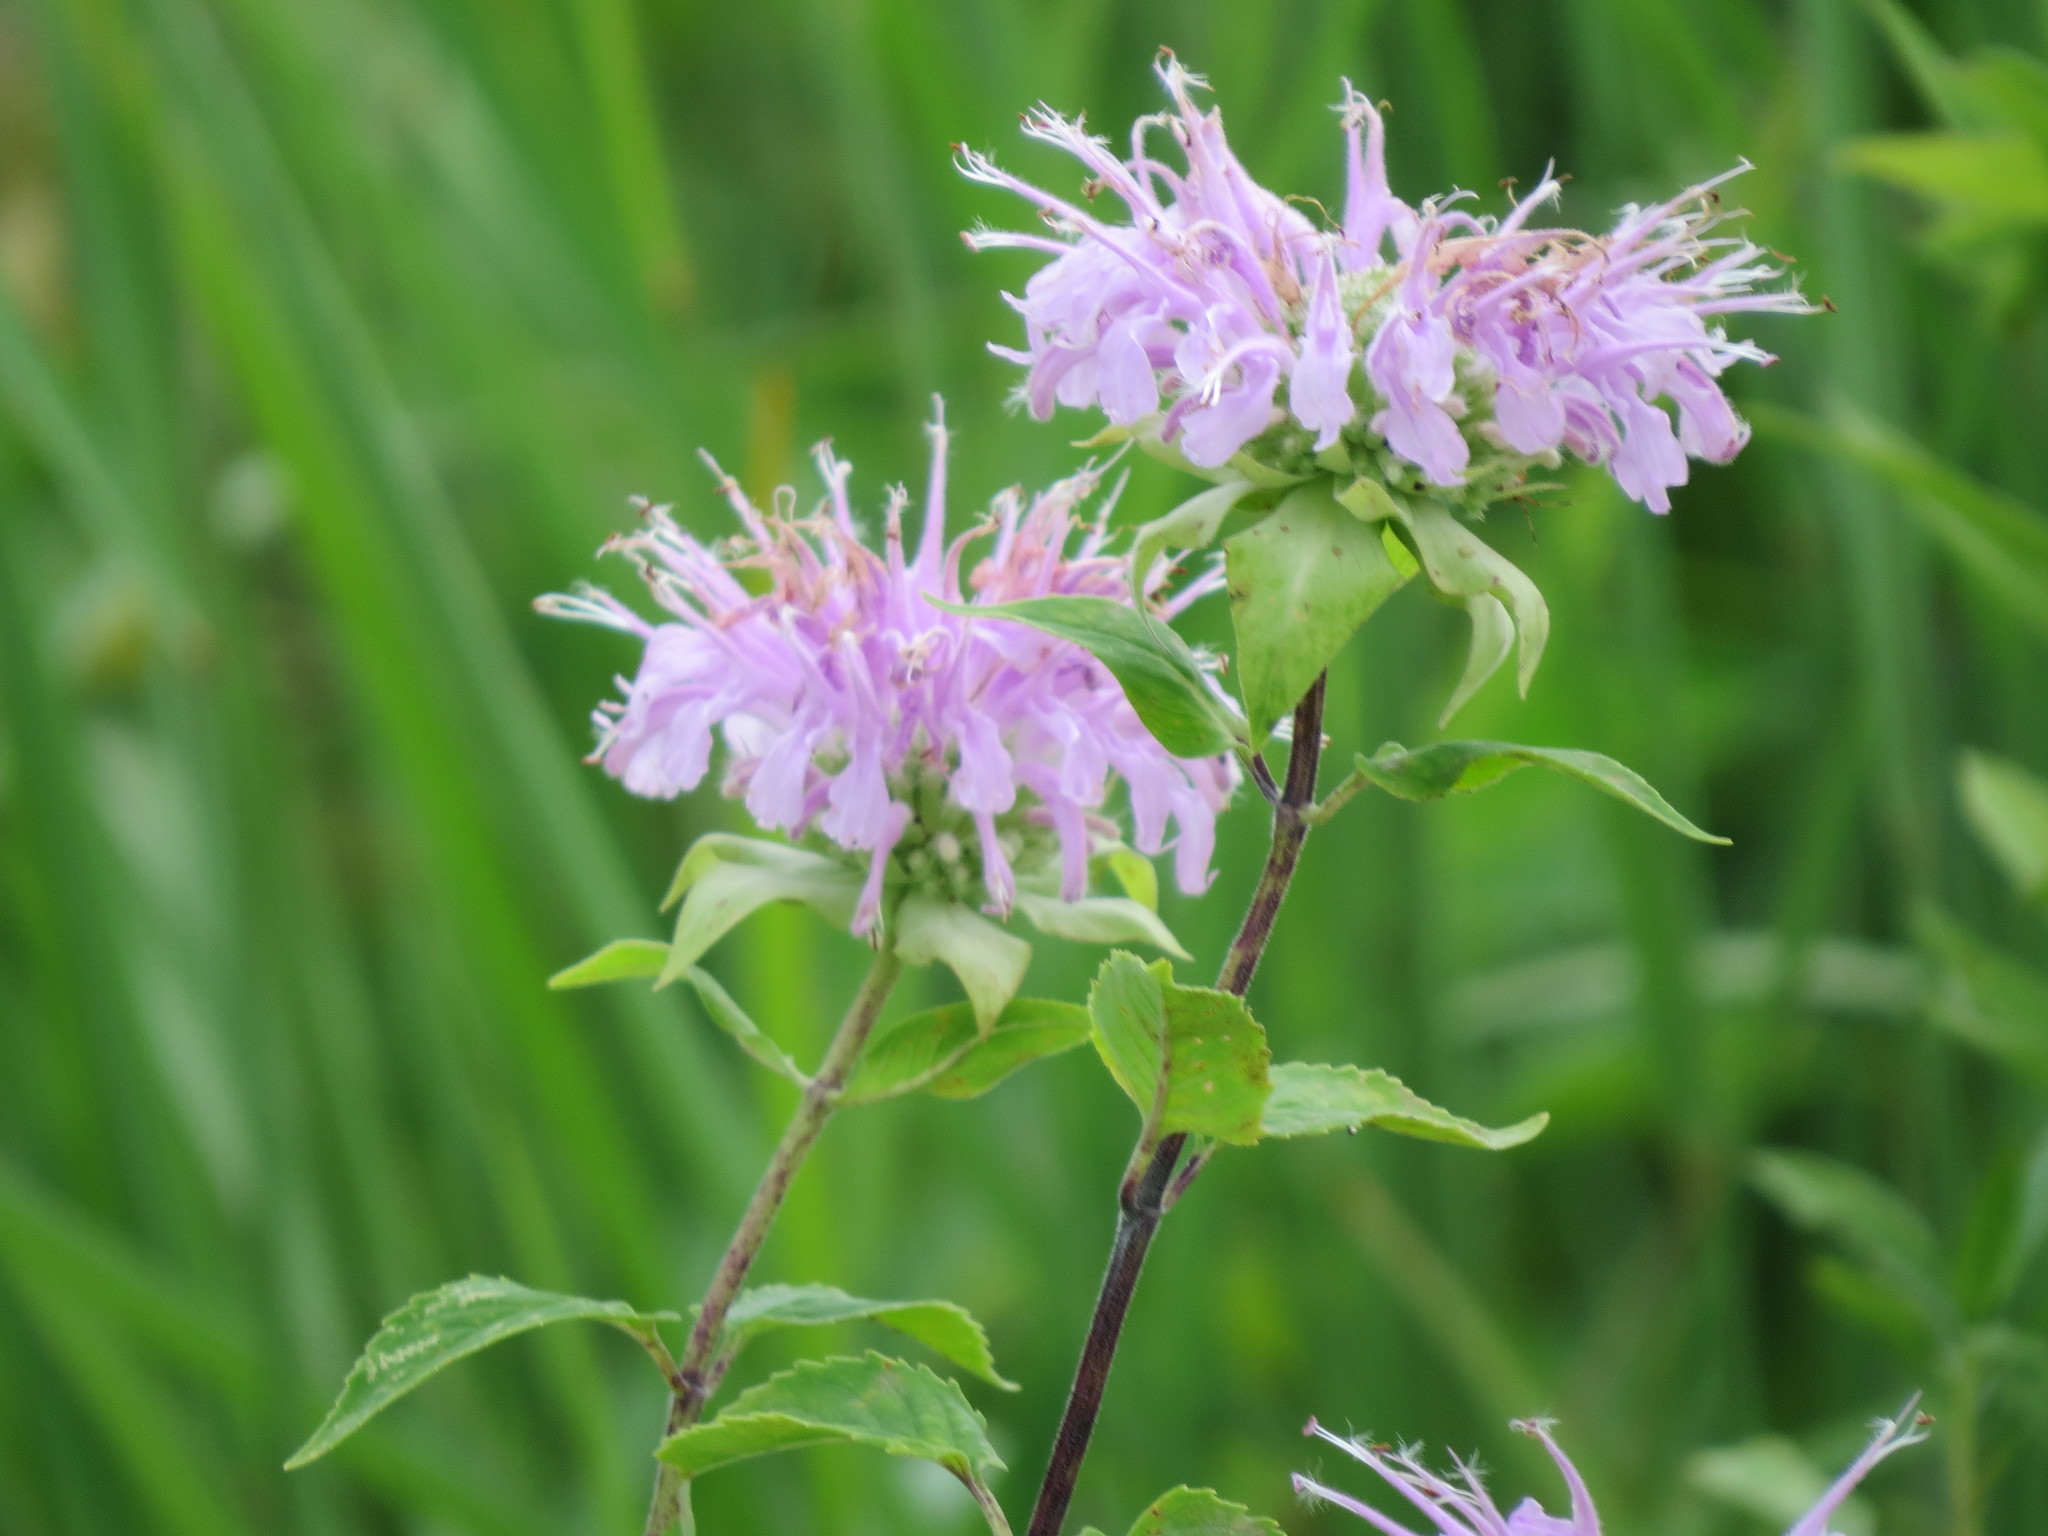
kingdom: Plantae
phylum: Tracheophyta
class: Magnoliopsida
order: Lamiales
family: Lamiaceae
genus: Monarda
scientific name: Monarda fistulosa
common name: Purple beebalm
